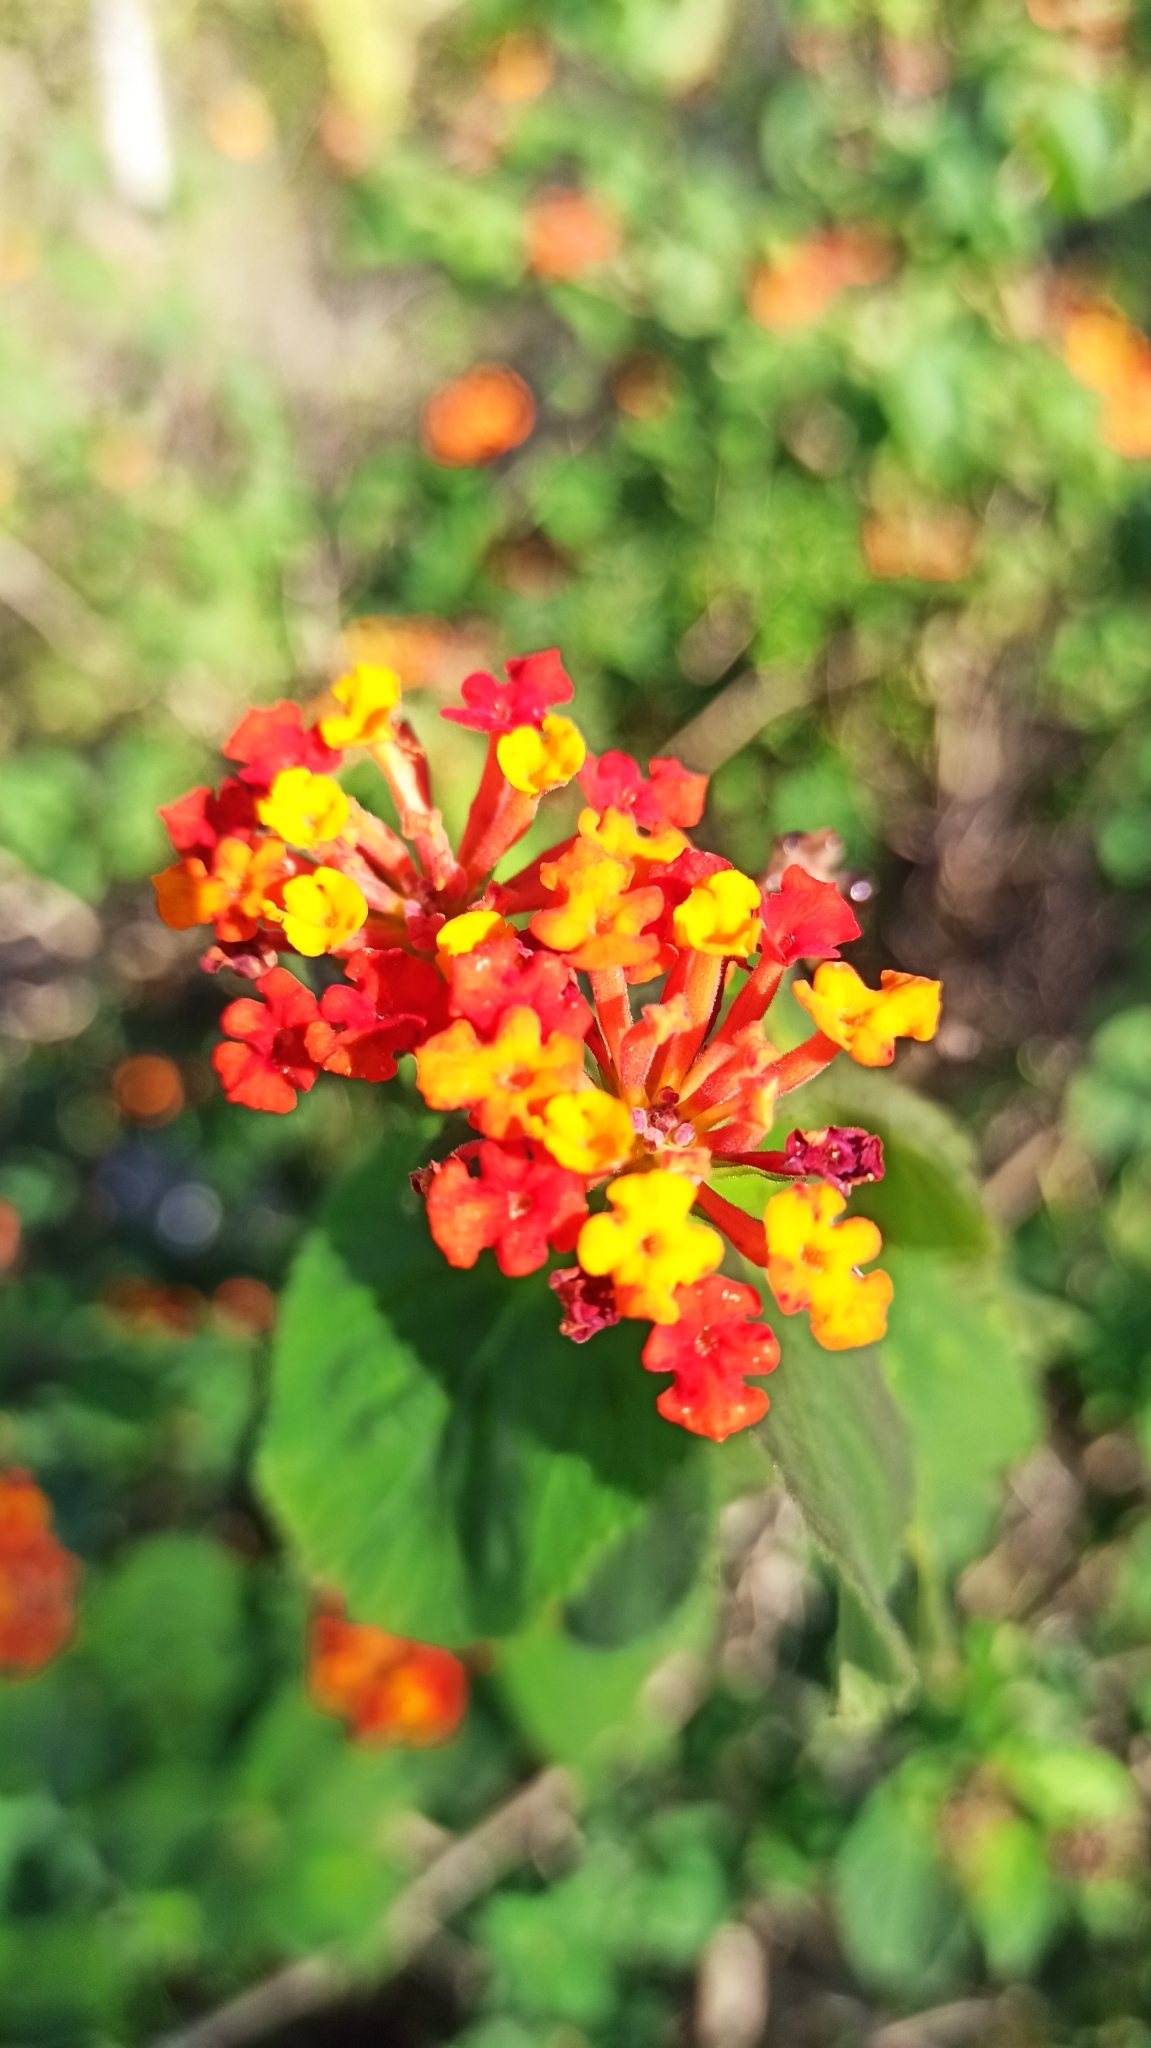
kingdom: Plantae
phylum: Tracheophyta
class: Magnoliopsida
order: Lamiales
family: Verbenaceae
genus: Lantana
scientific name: Lantana camara
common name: Lantana
